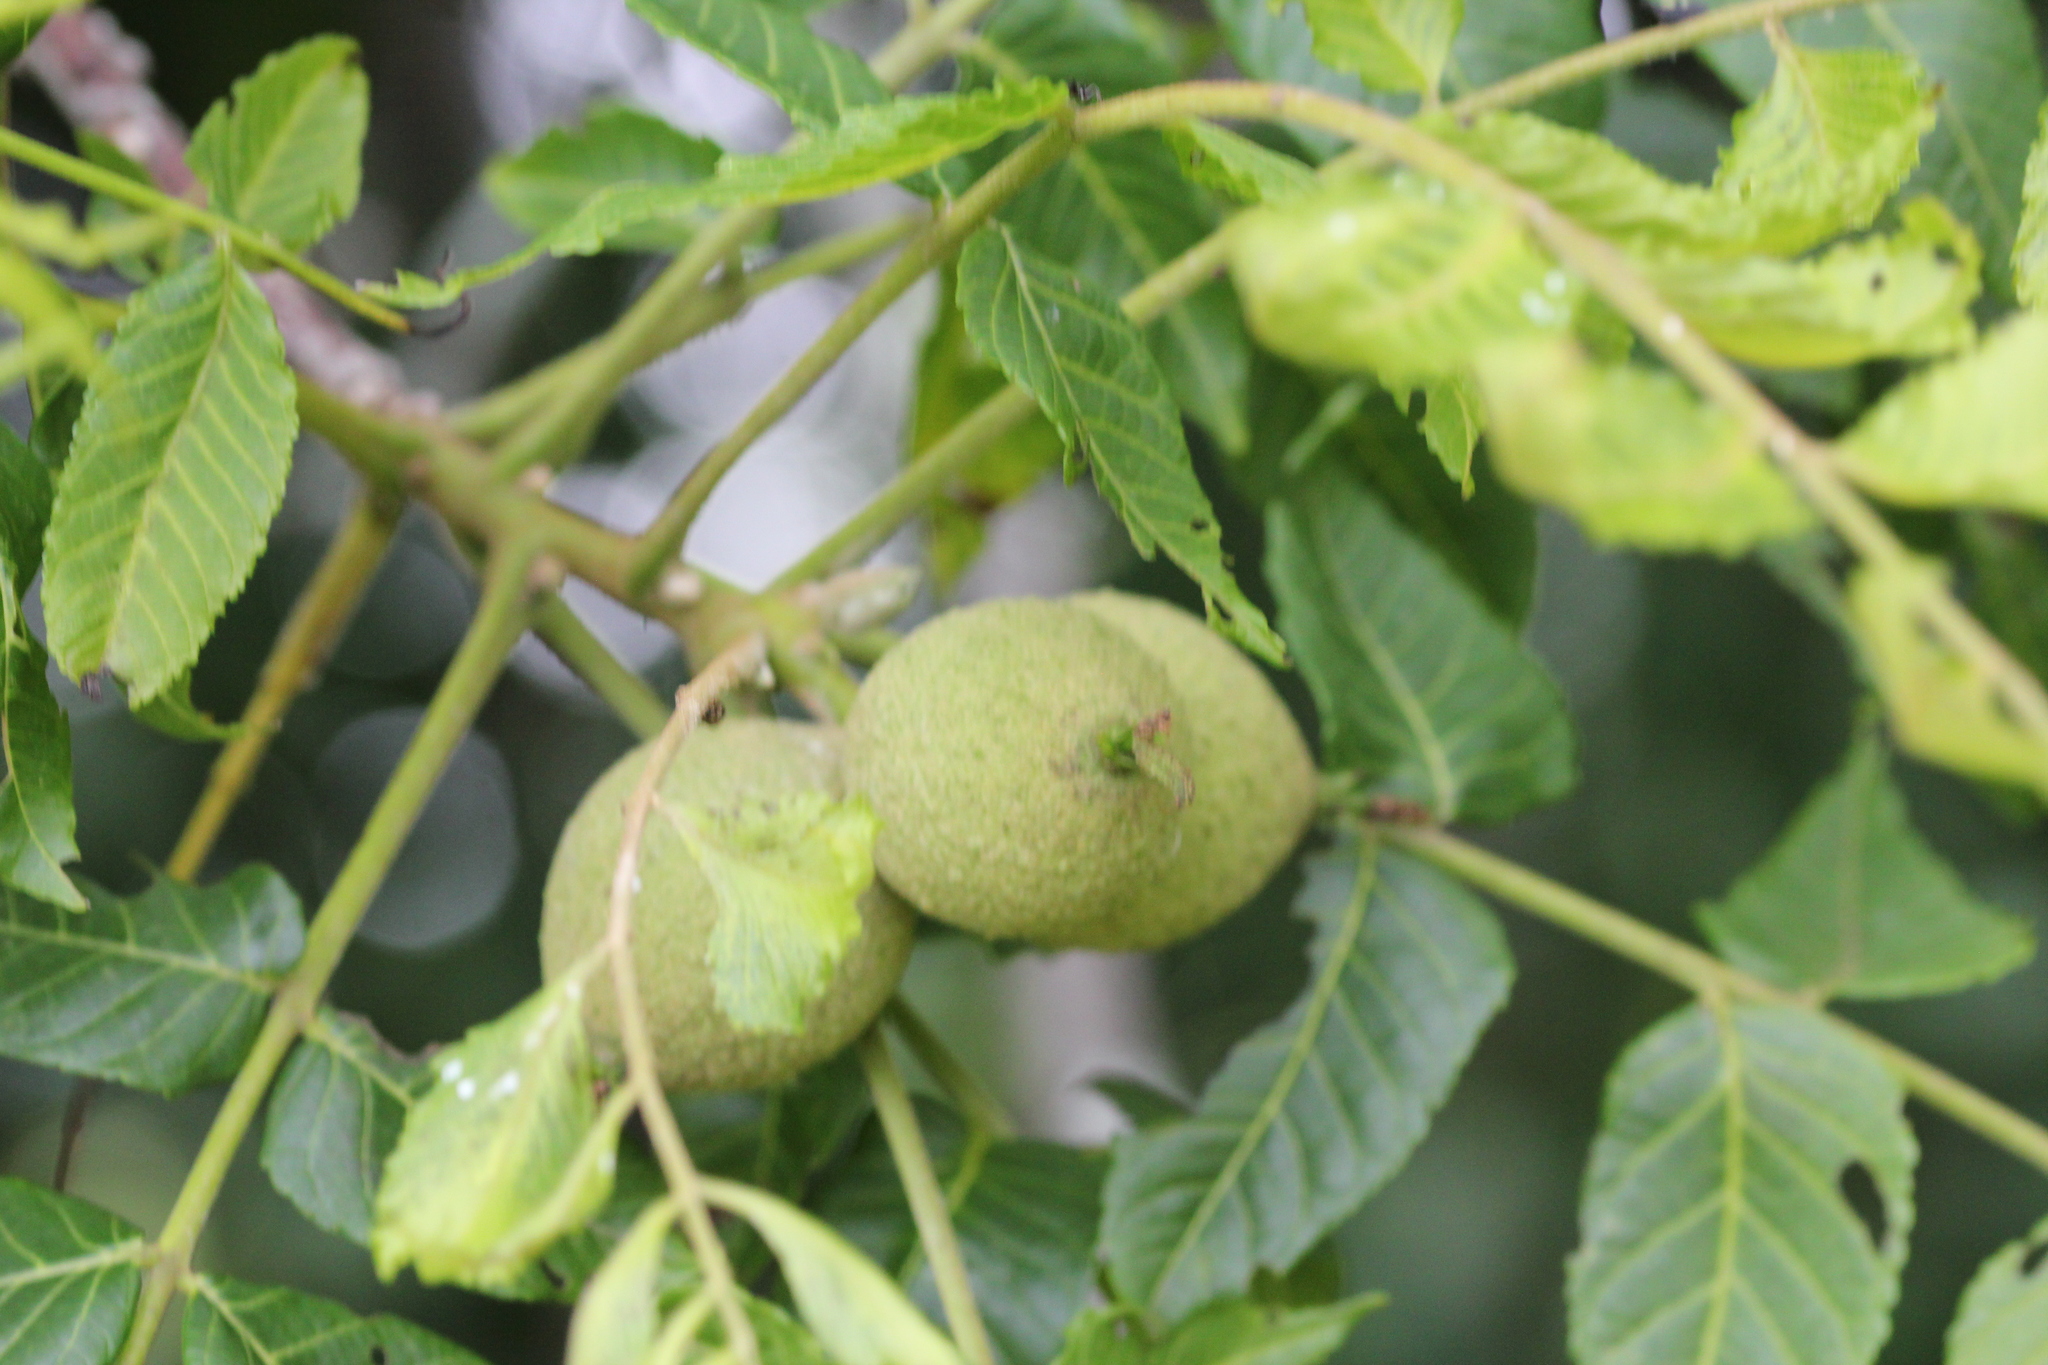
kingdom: Plantae
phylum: Tracheophyta
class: Magnoliopsida
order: Fagales
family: Juglandaceae
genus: Juglans
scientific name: Juglans nigra
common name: Black walnut
